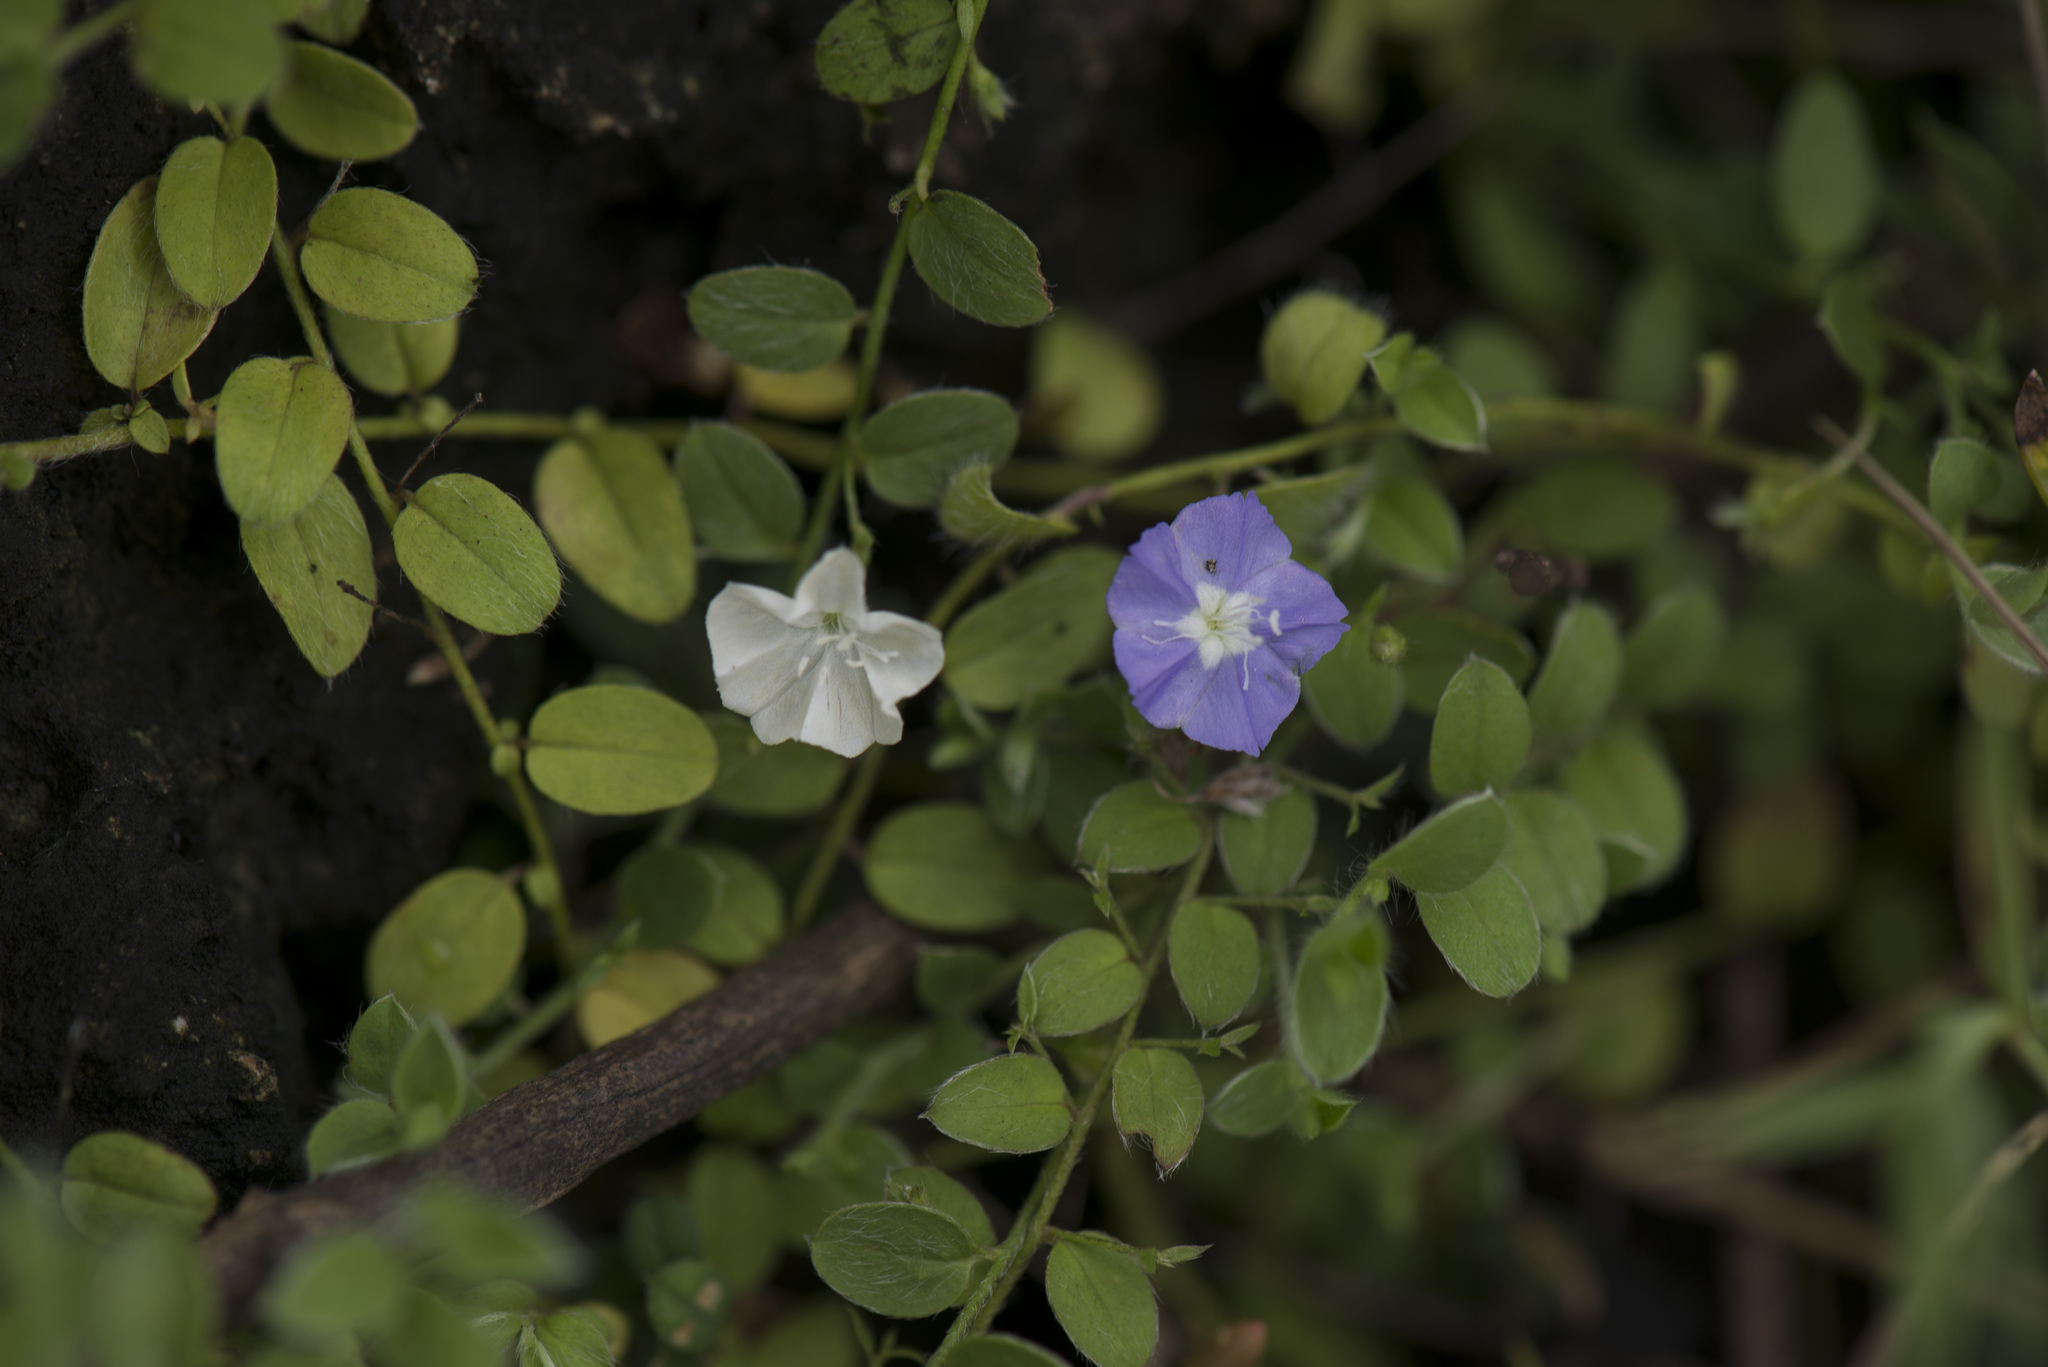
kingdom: Plantae
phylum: Tracheophyta
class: Magnoliopsida
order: Solanales
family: Convolvulaceae
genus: Evolvulus
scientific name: Evolvulus alsinoides
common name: Slender dwarf morning-glory
